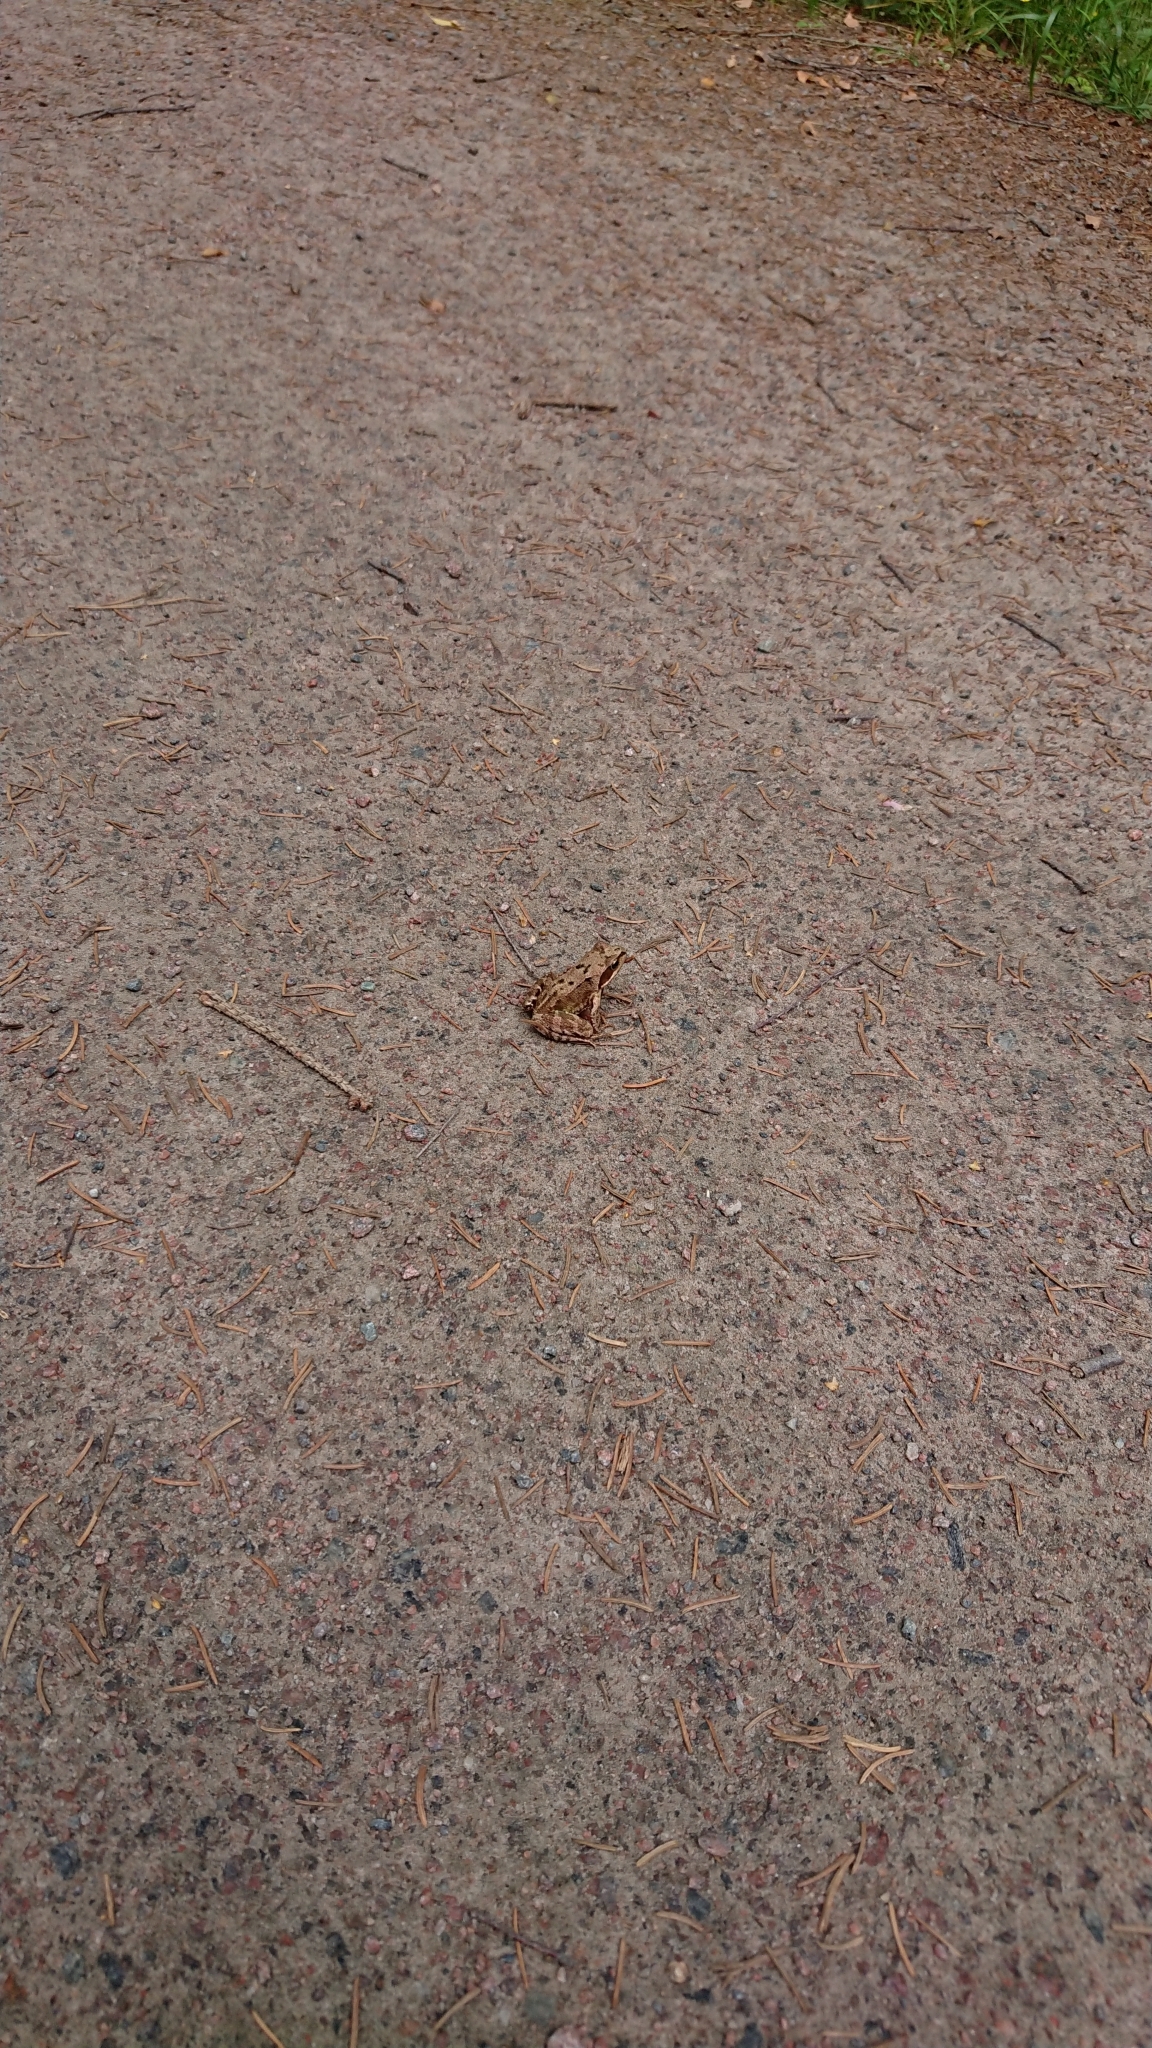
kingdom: Animalia
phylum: Chordata
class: Amphibia
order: Anura
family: Ranidae
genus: Rana
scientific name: Rana temporaria
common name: Common frog
